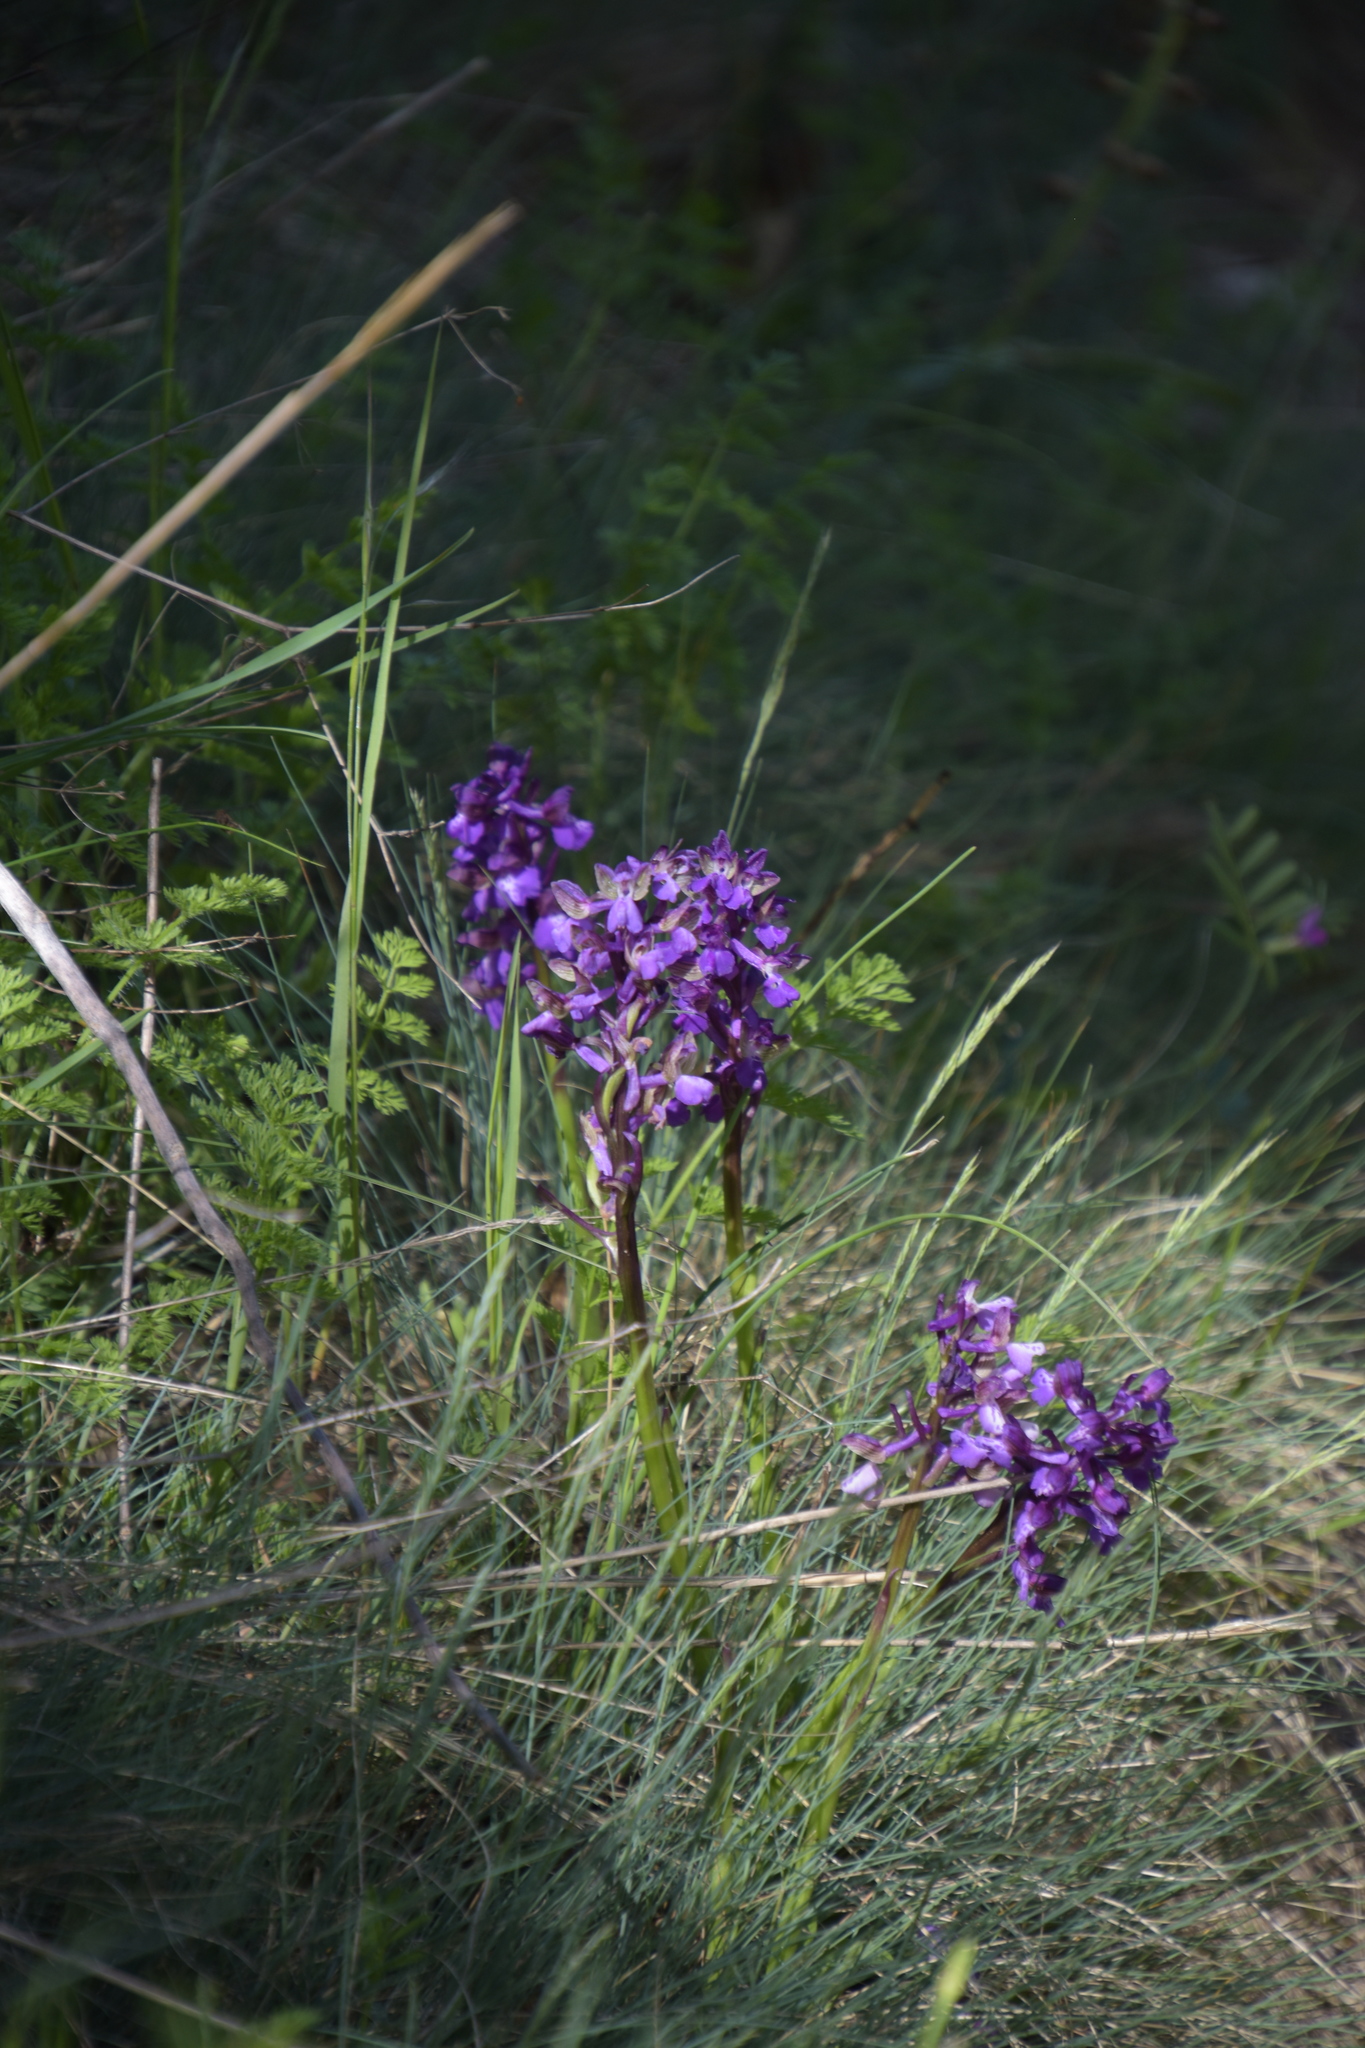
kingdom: Plantae
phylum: Tracheophyta
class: Liliopsida
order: Asparagales
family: Orchidaceae
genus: Anacamptis
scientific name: Anacamptis morio
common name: Green-winged orchid
